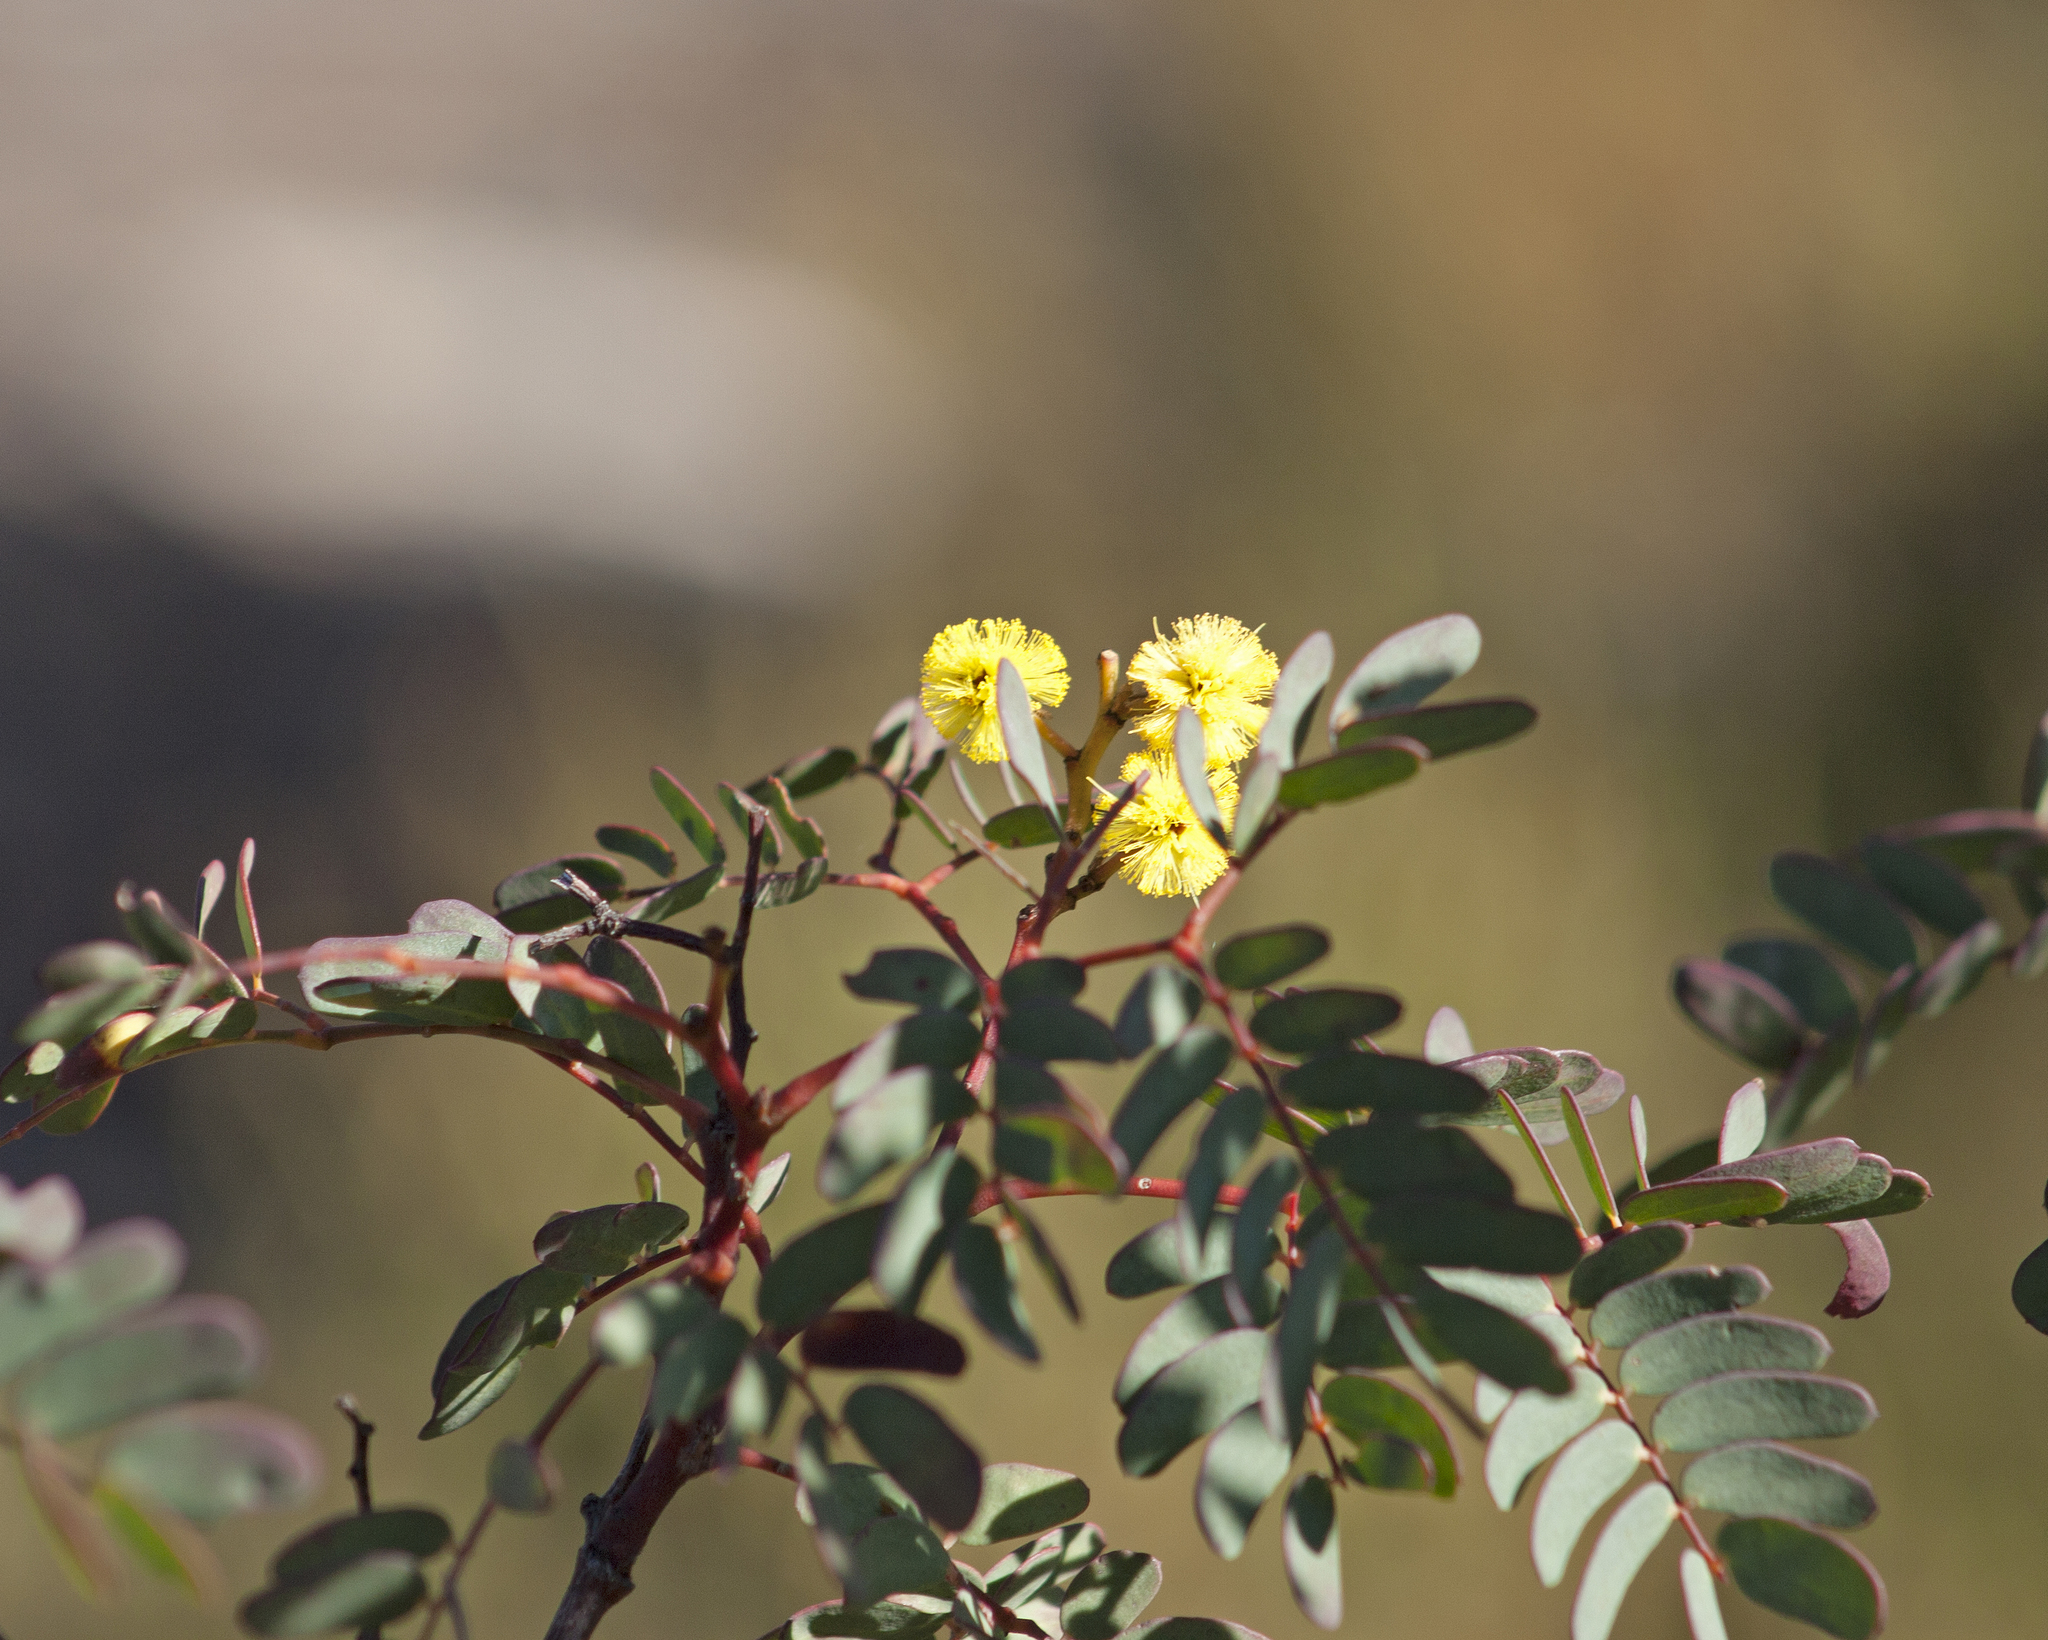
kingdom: Plantae
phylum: Tracheophyta
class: Magnoliopsida
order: Fabales
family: Fabaceae
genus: Acacia
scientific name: Acacia latisepala
